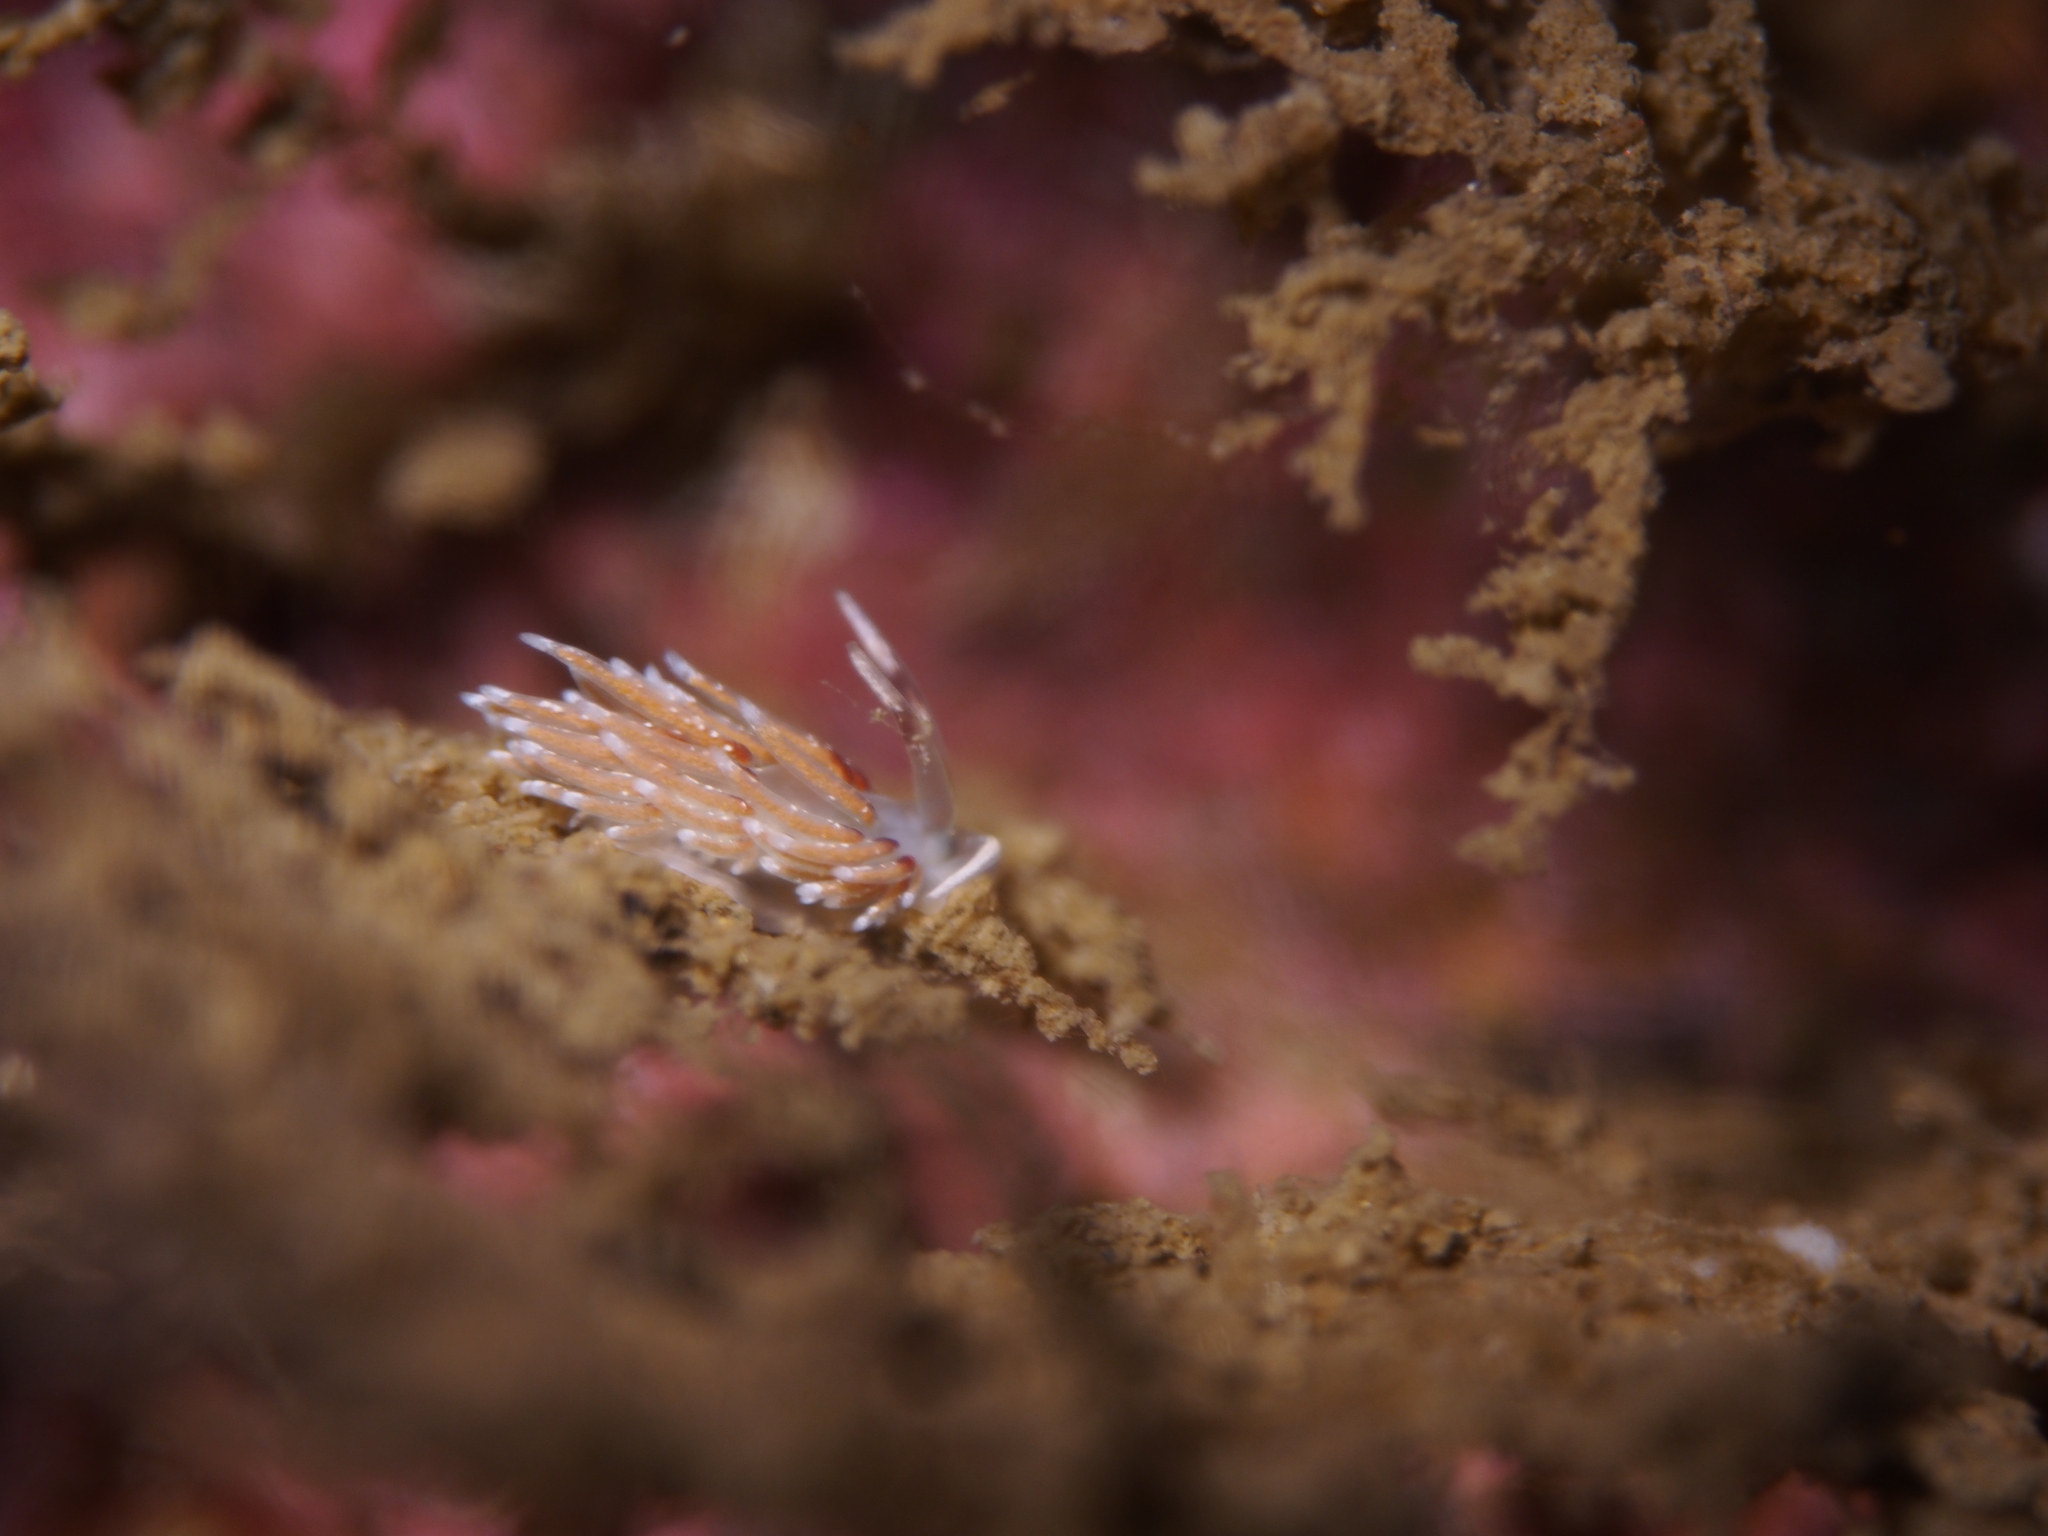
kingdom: Animalia
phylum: Mollusca
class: Gastropoda
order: Nudibranchia
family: Trinchesiidae
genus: Rubramoena
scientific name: Rubramoena rubescens
